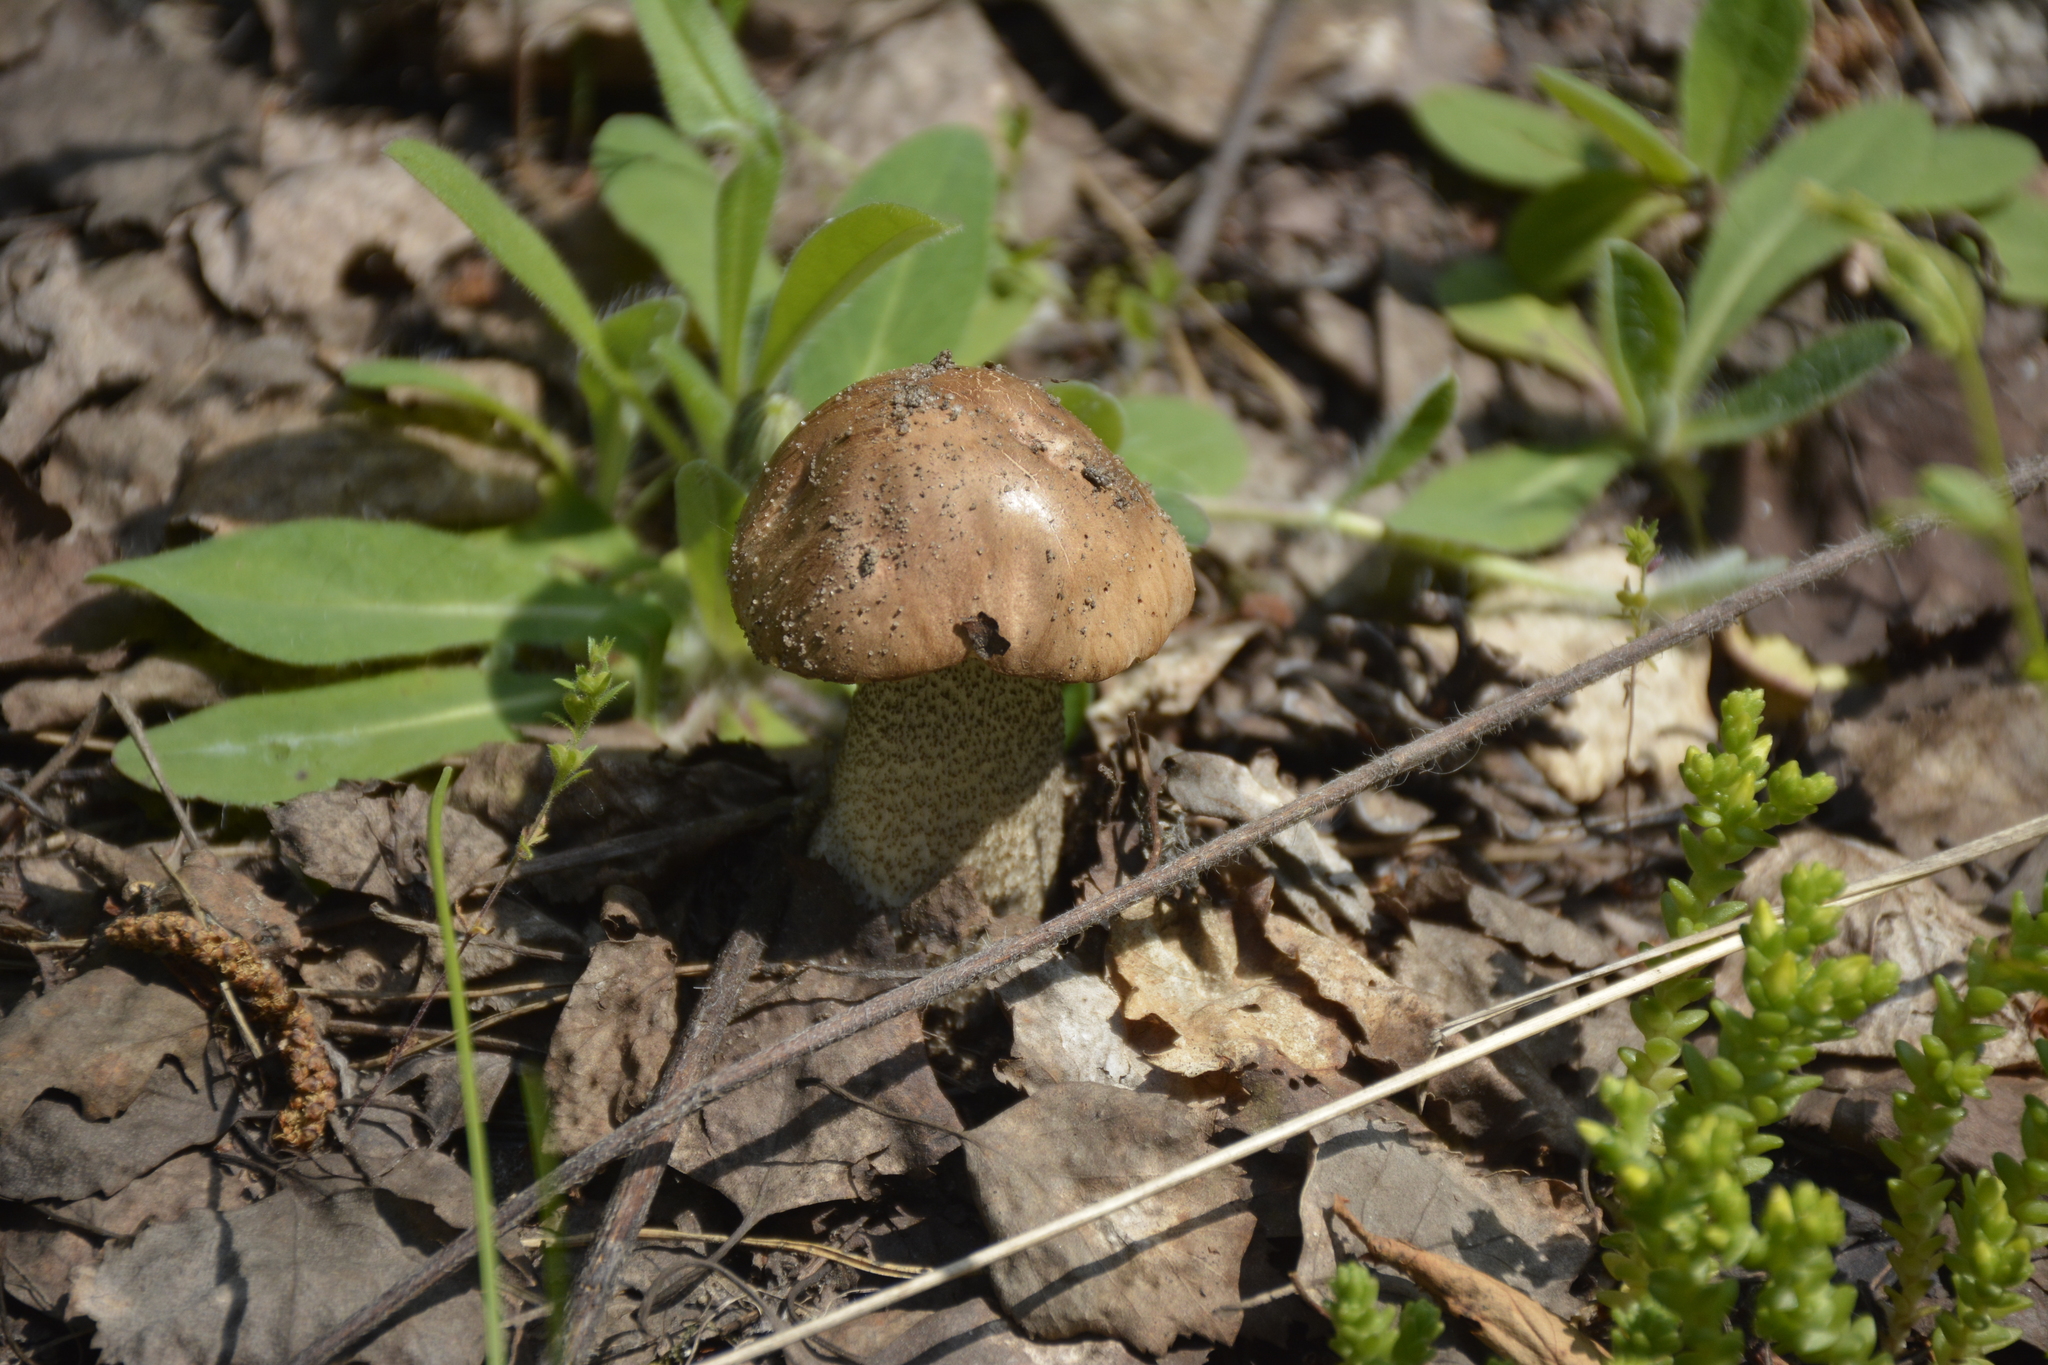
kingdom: Fungi
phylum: Basidiomycota
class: Agaricomycetes
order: Boletales
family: Boletaceae
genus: Leccinum
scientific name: Leccinum scabrum
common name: Blushing bolete
